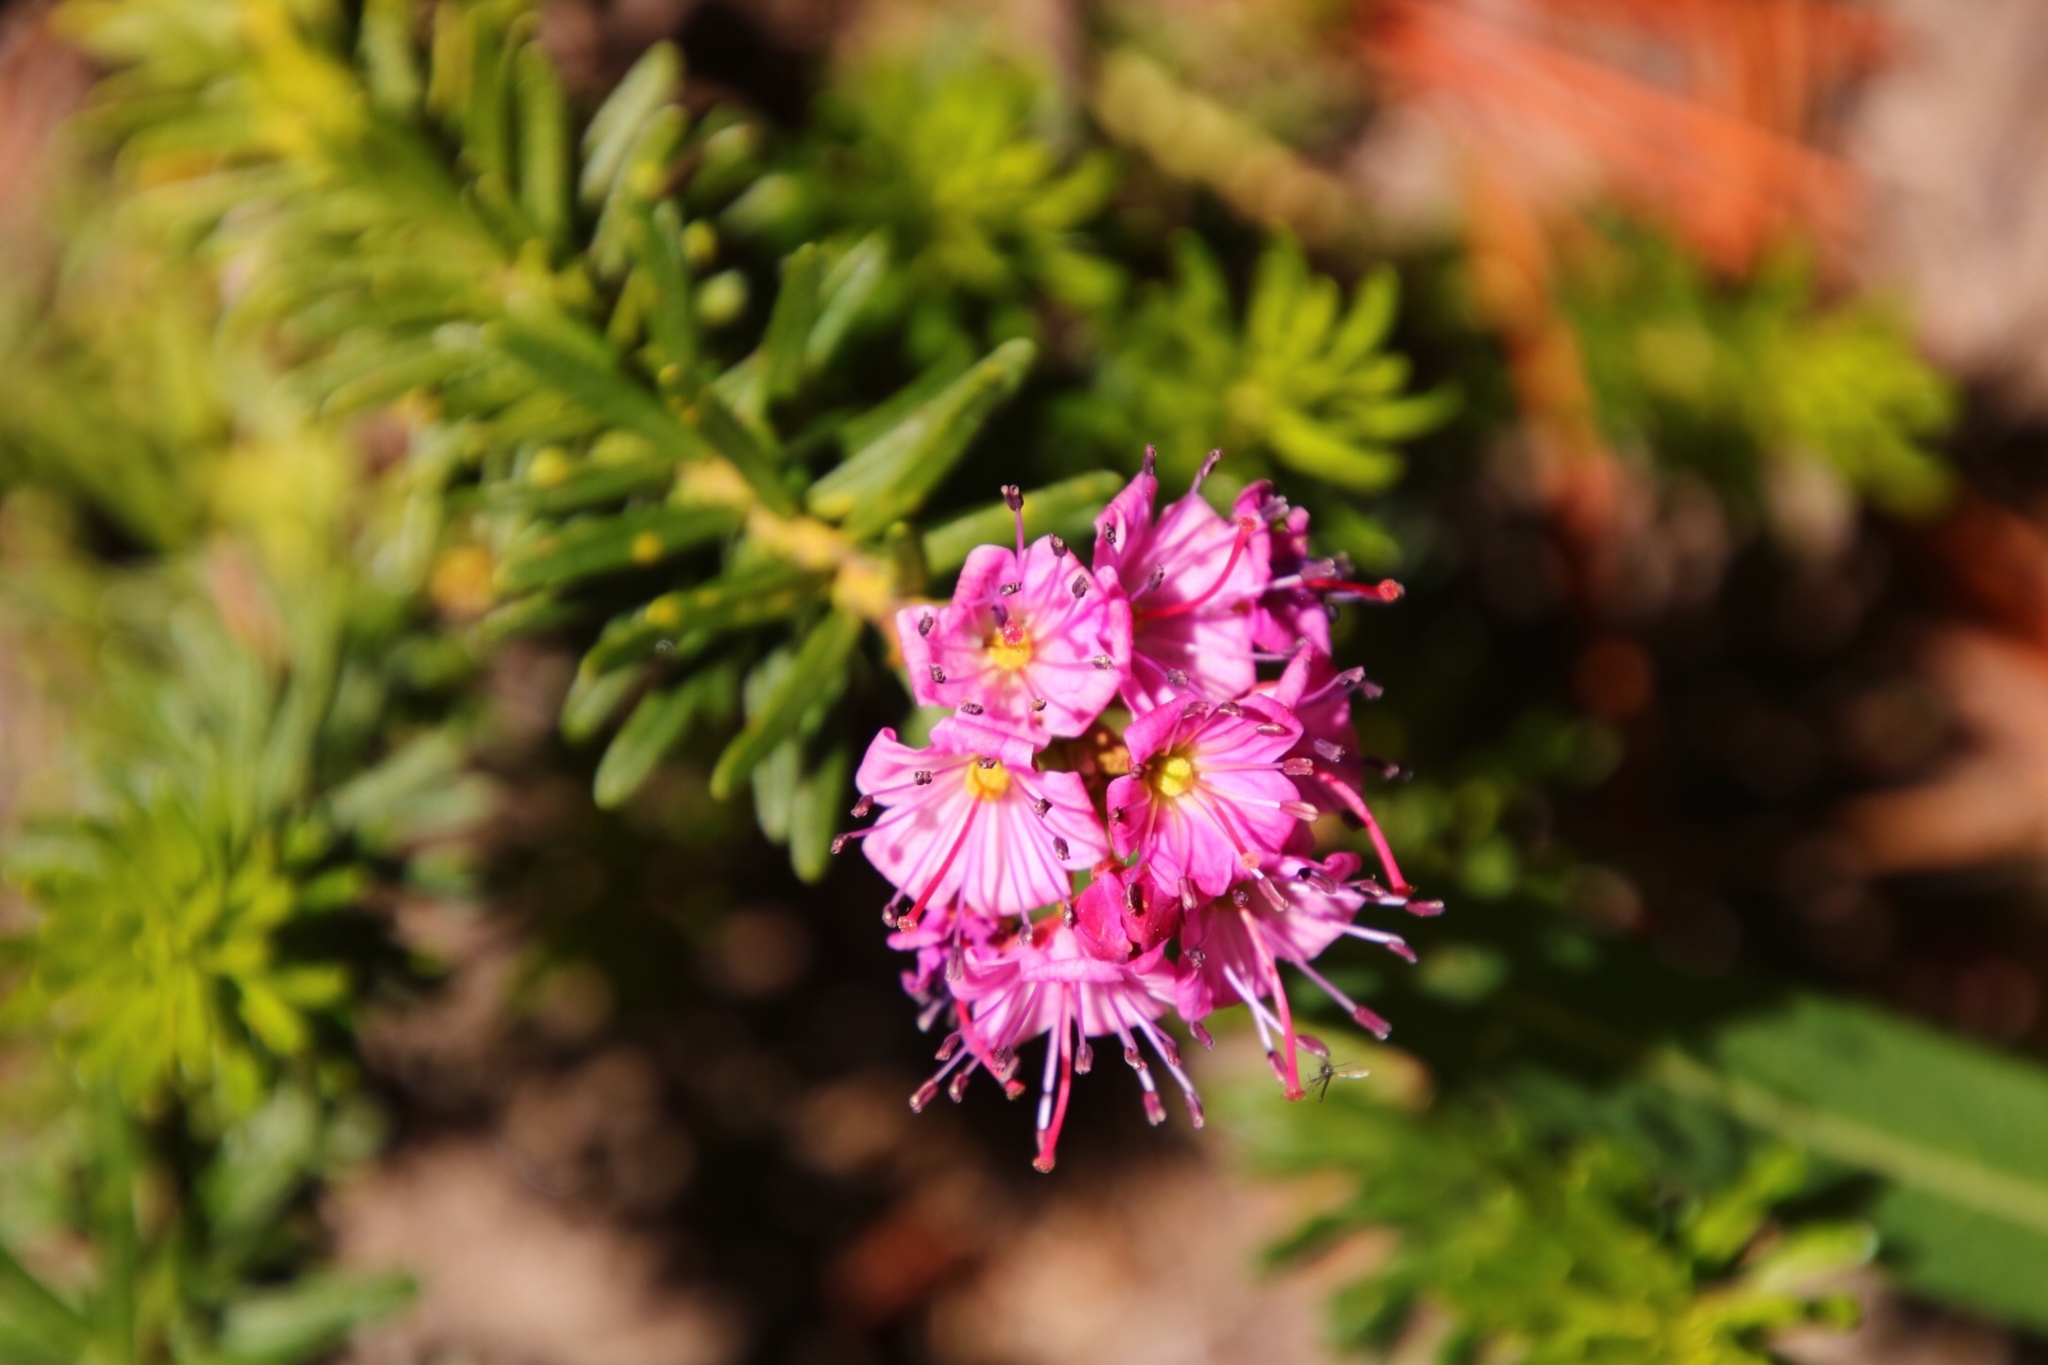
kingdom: Plantae
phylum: Tracheophyta
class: Magnoliopsida
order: Ericales
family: Ericaceae
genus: Phyllodoce
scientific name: Phyllodoce breweri
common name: Brewer's mountain-heather
